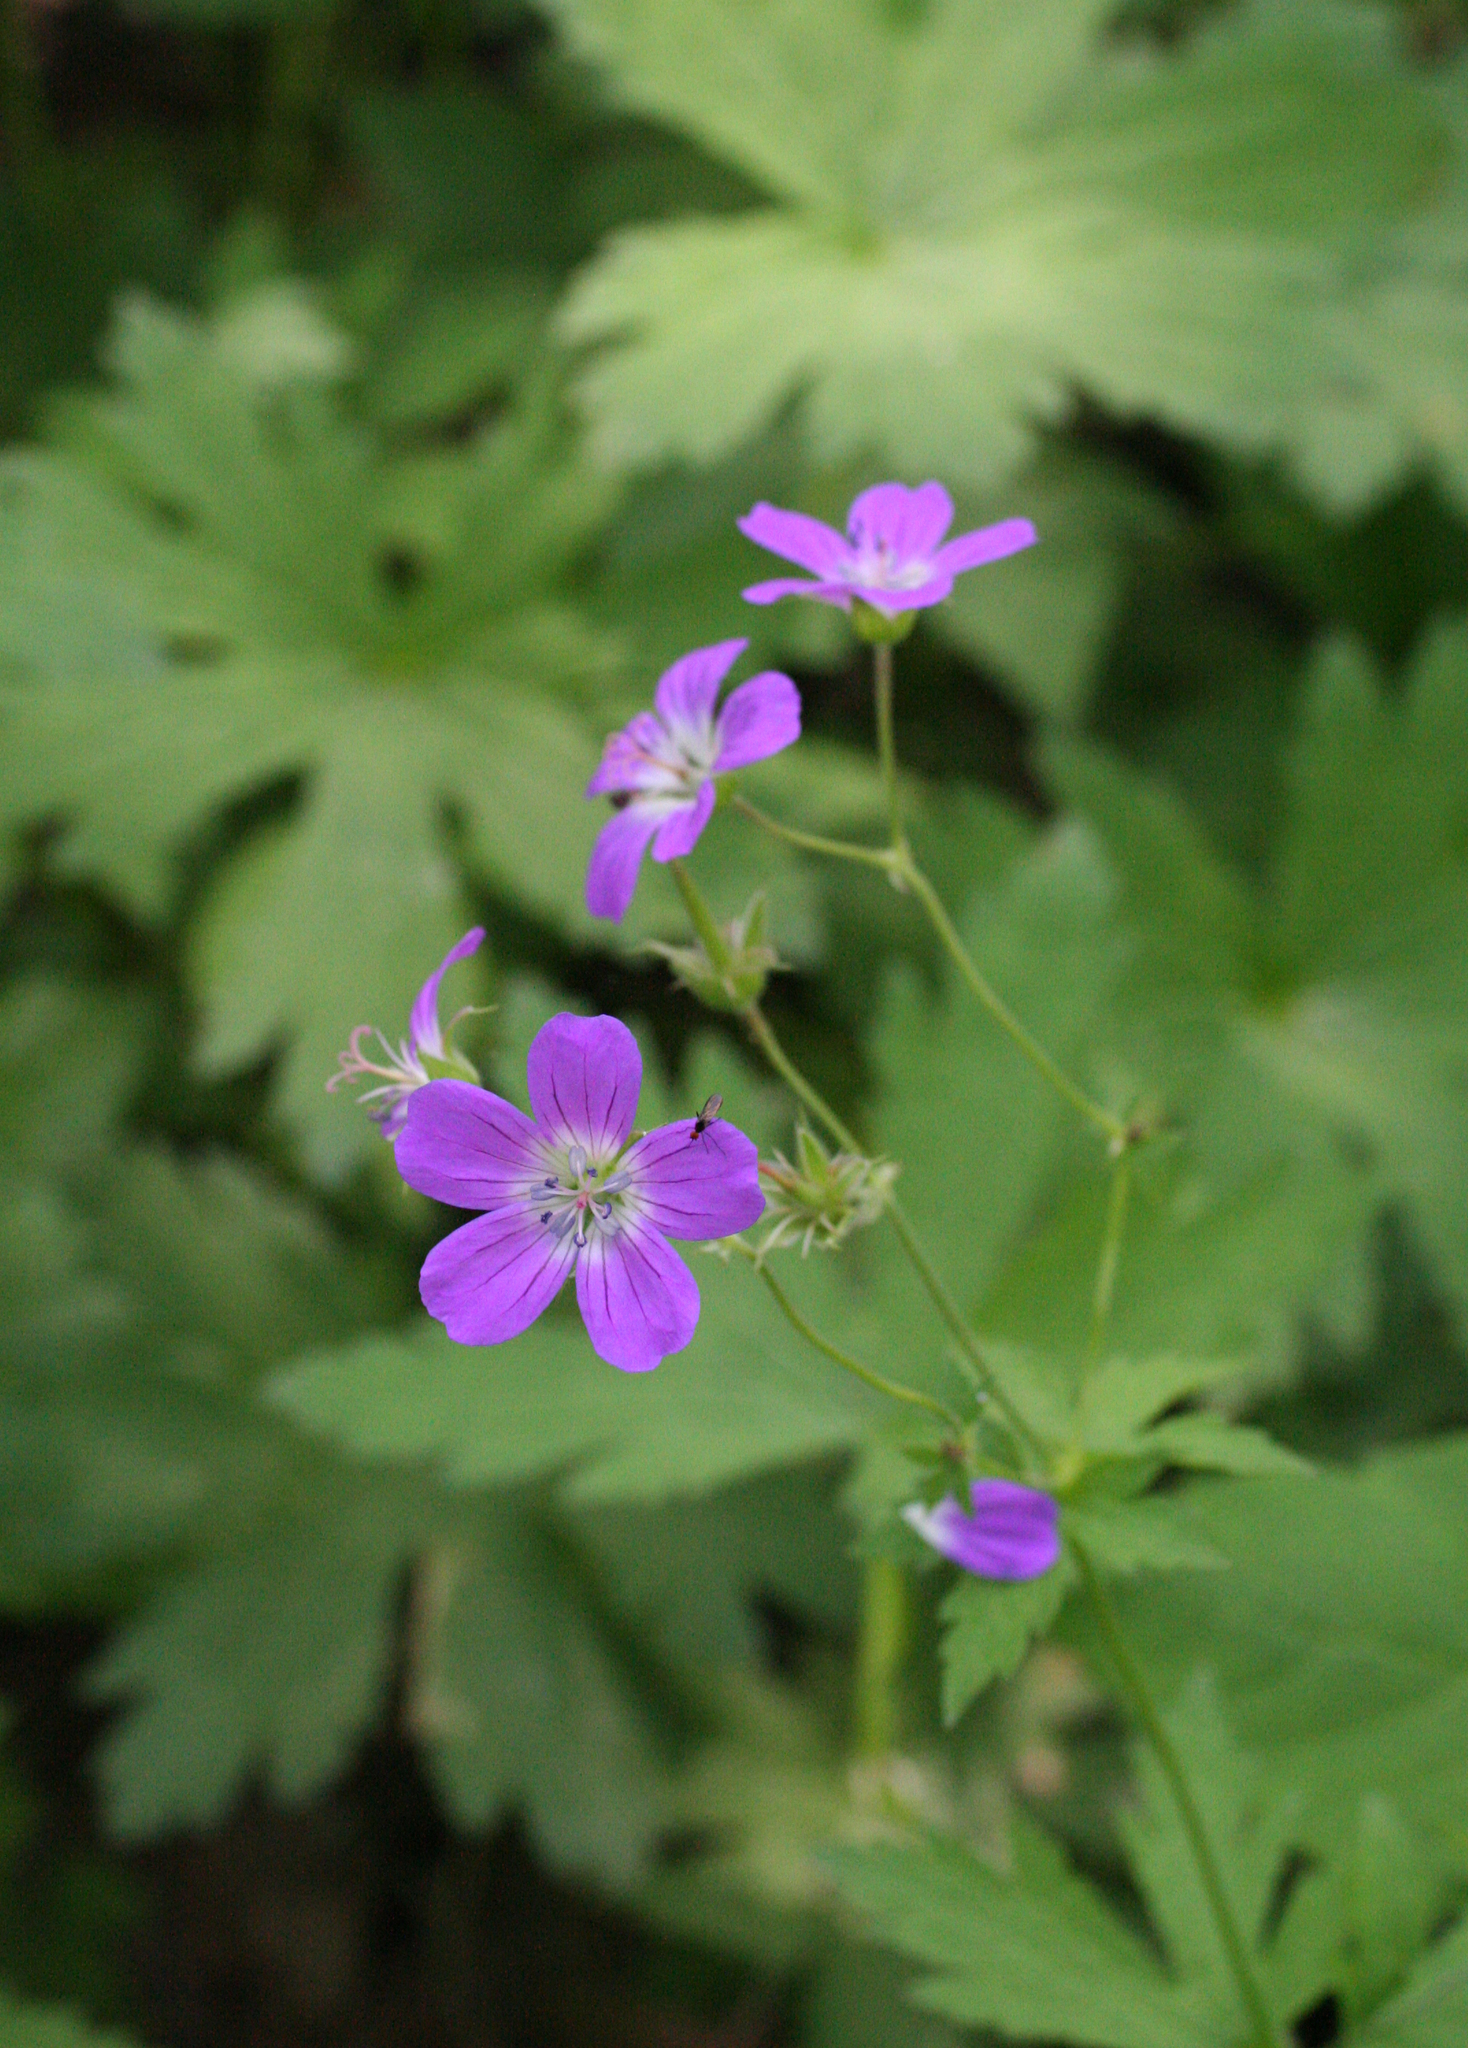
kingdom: Plantae
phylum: Tracheophyta
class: Magnoliopsida
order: Geraniales
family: Geraniaceae
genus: Geranium
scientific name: Geranium sylvaticum
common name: Wood crane's-bill
